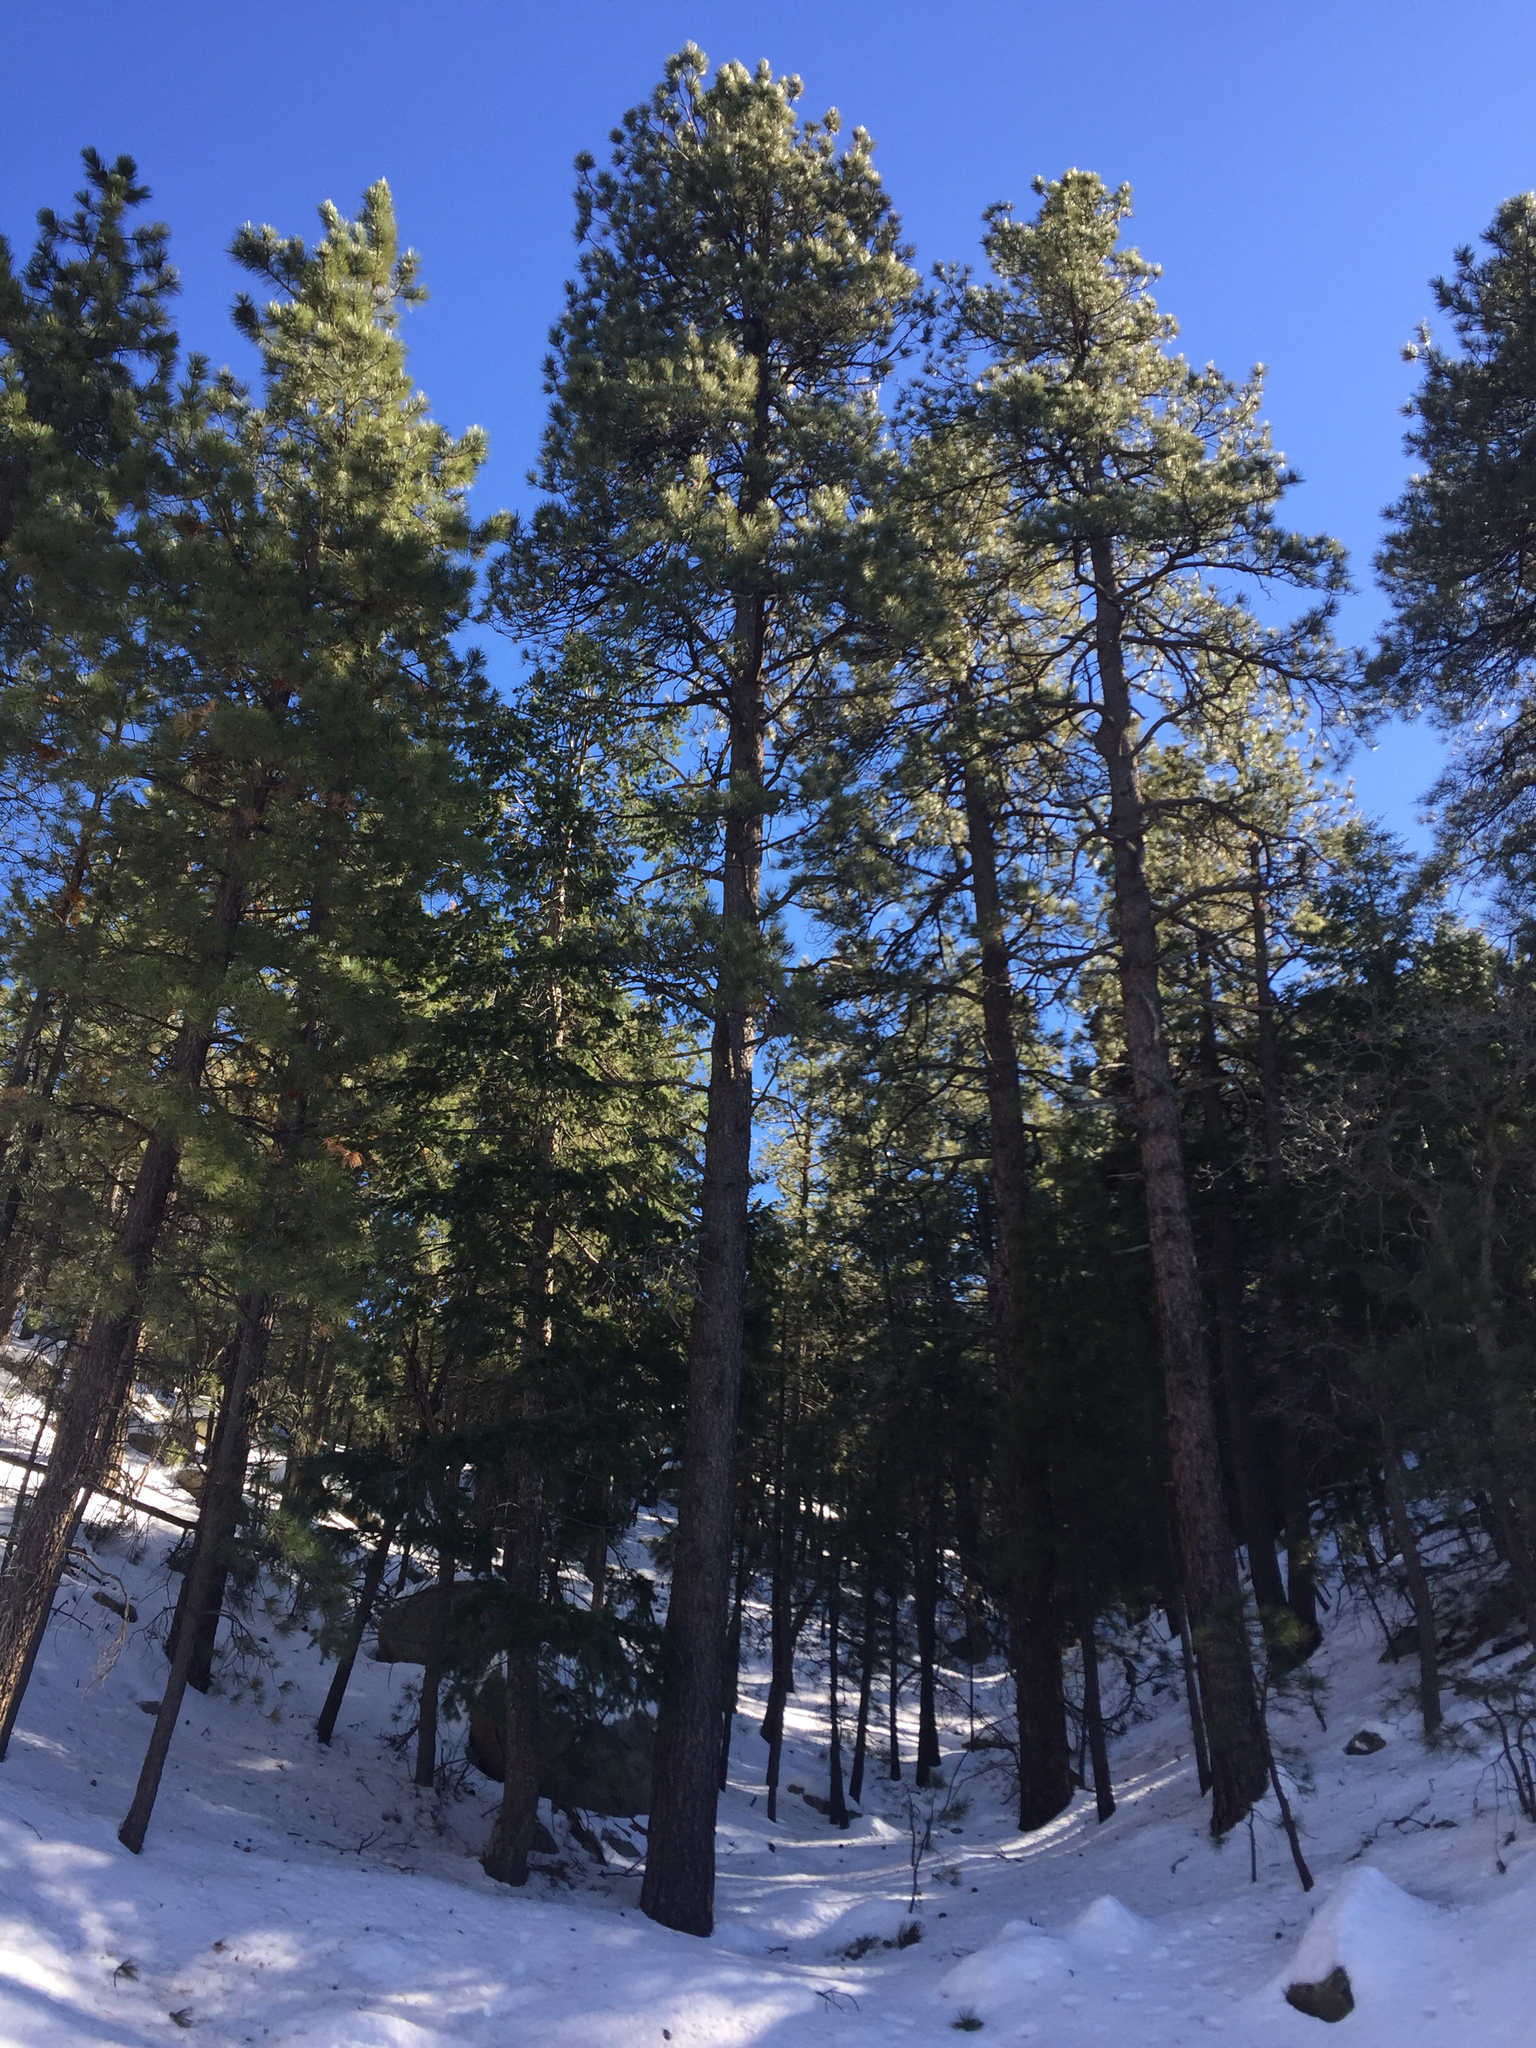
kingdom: Plantae
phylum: Tracheophyta
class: Pinopsida
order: Pinales
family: Pinaceae
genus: Pinus
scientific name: Pinus ponderosa
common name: Western yellow-pine
